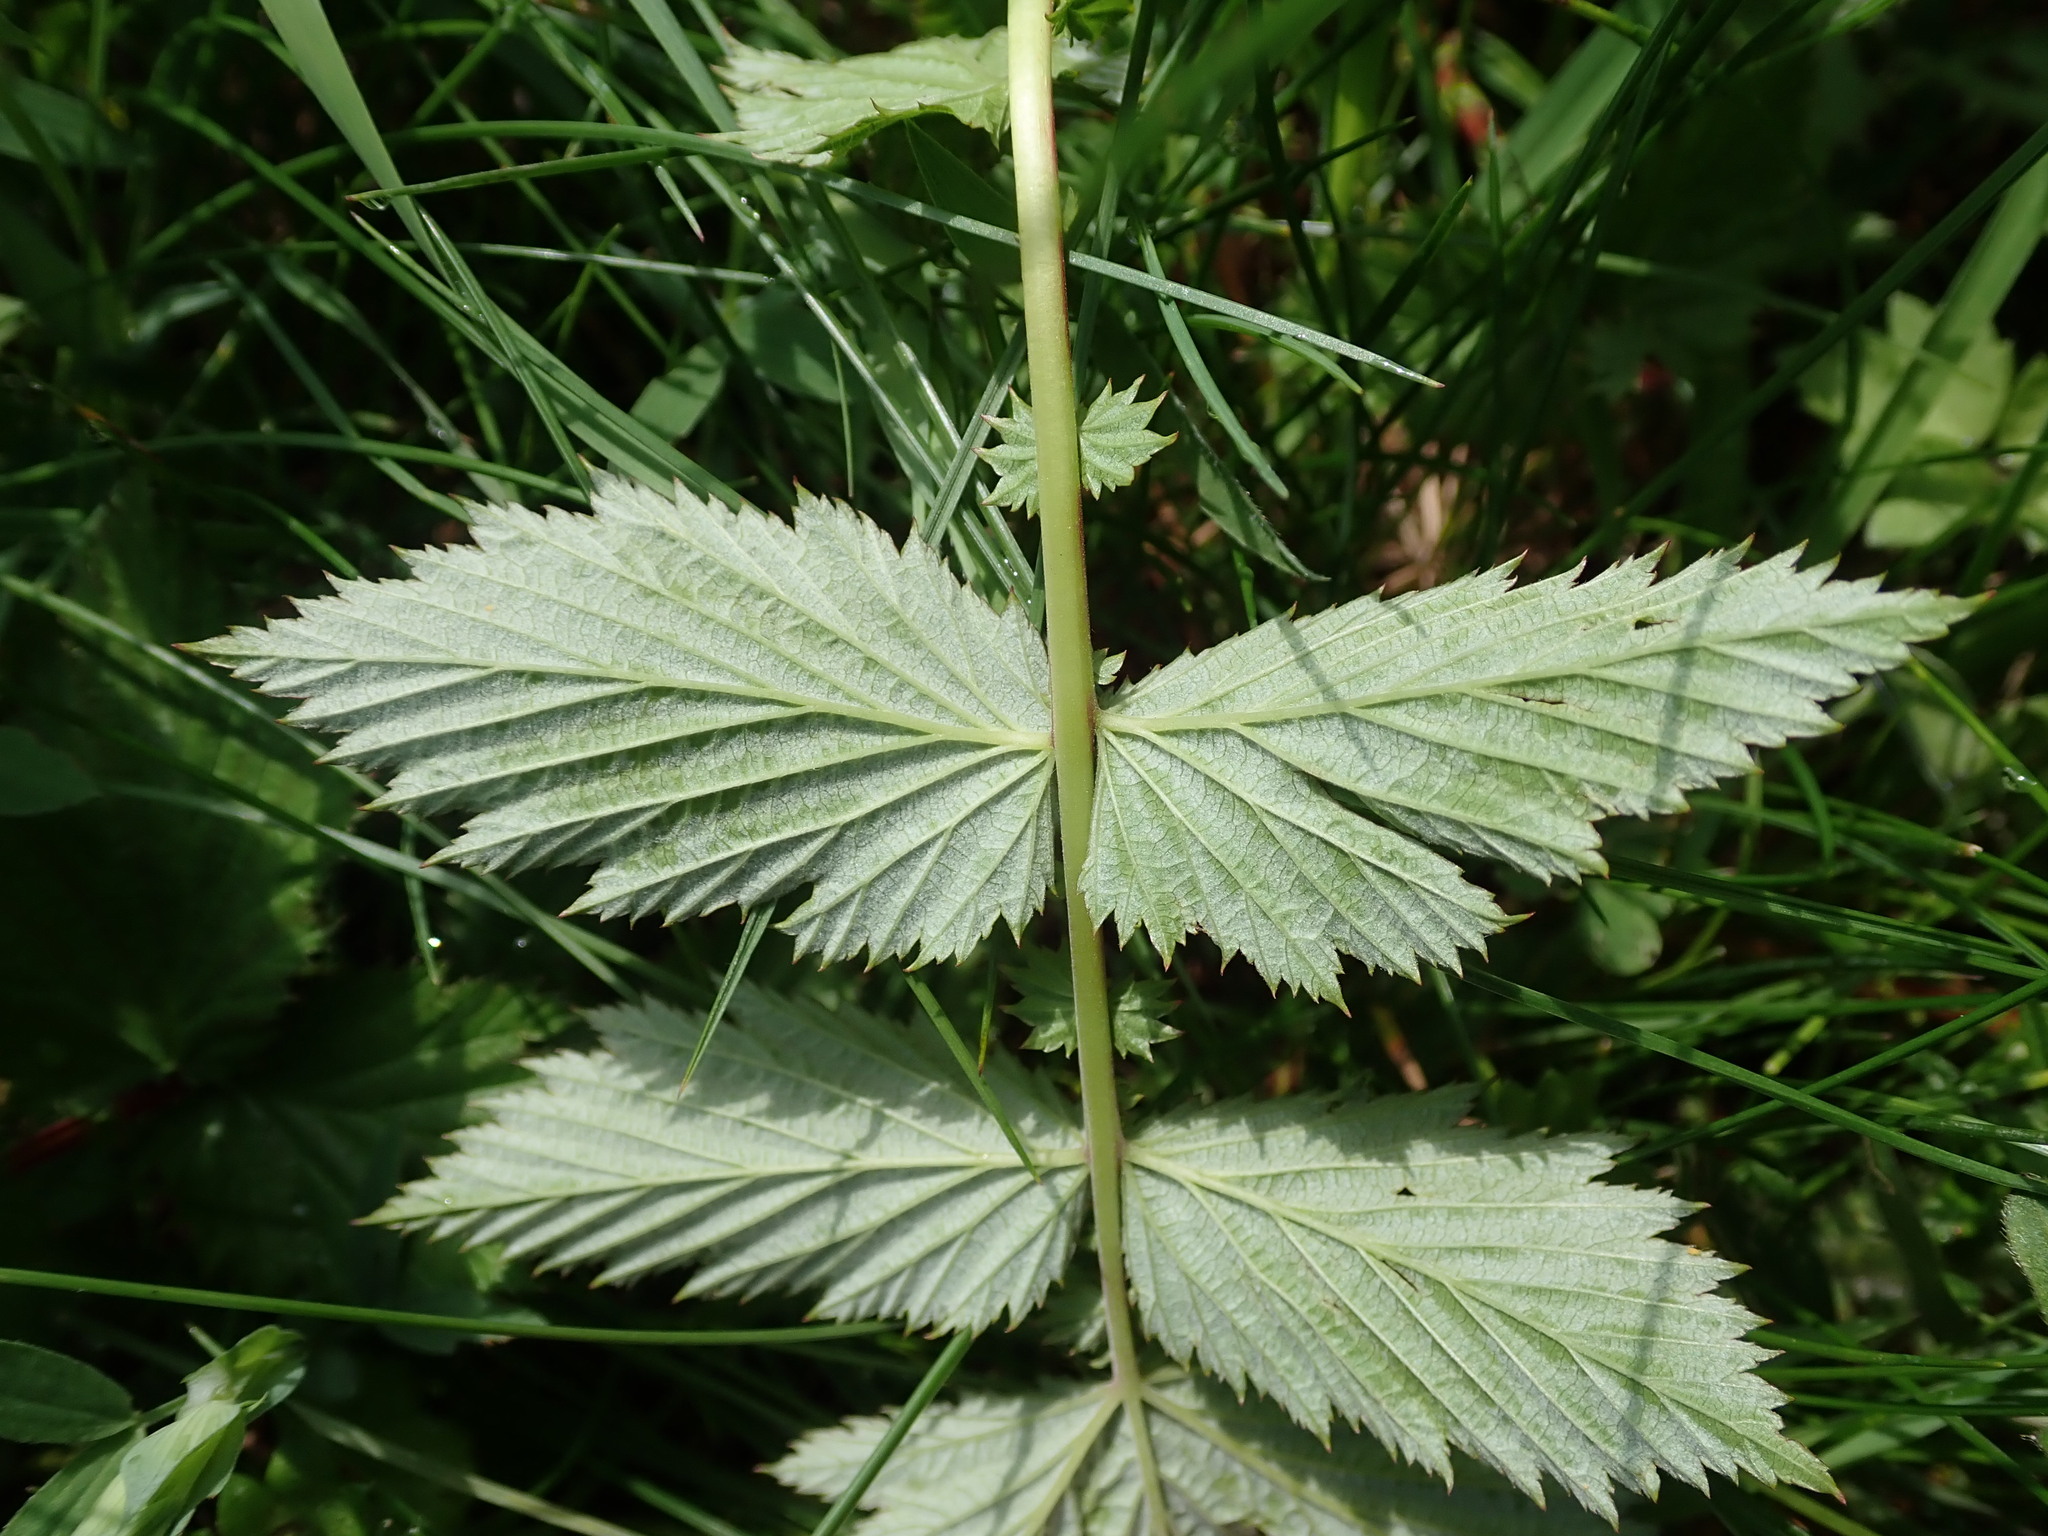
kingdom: Plantae
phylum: Tracheophyta
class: Magnoliopsida
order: Rosales
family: Rosaceae
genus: Filipendula
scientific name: Filipendula ulmaria
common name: Meadowsweet
